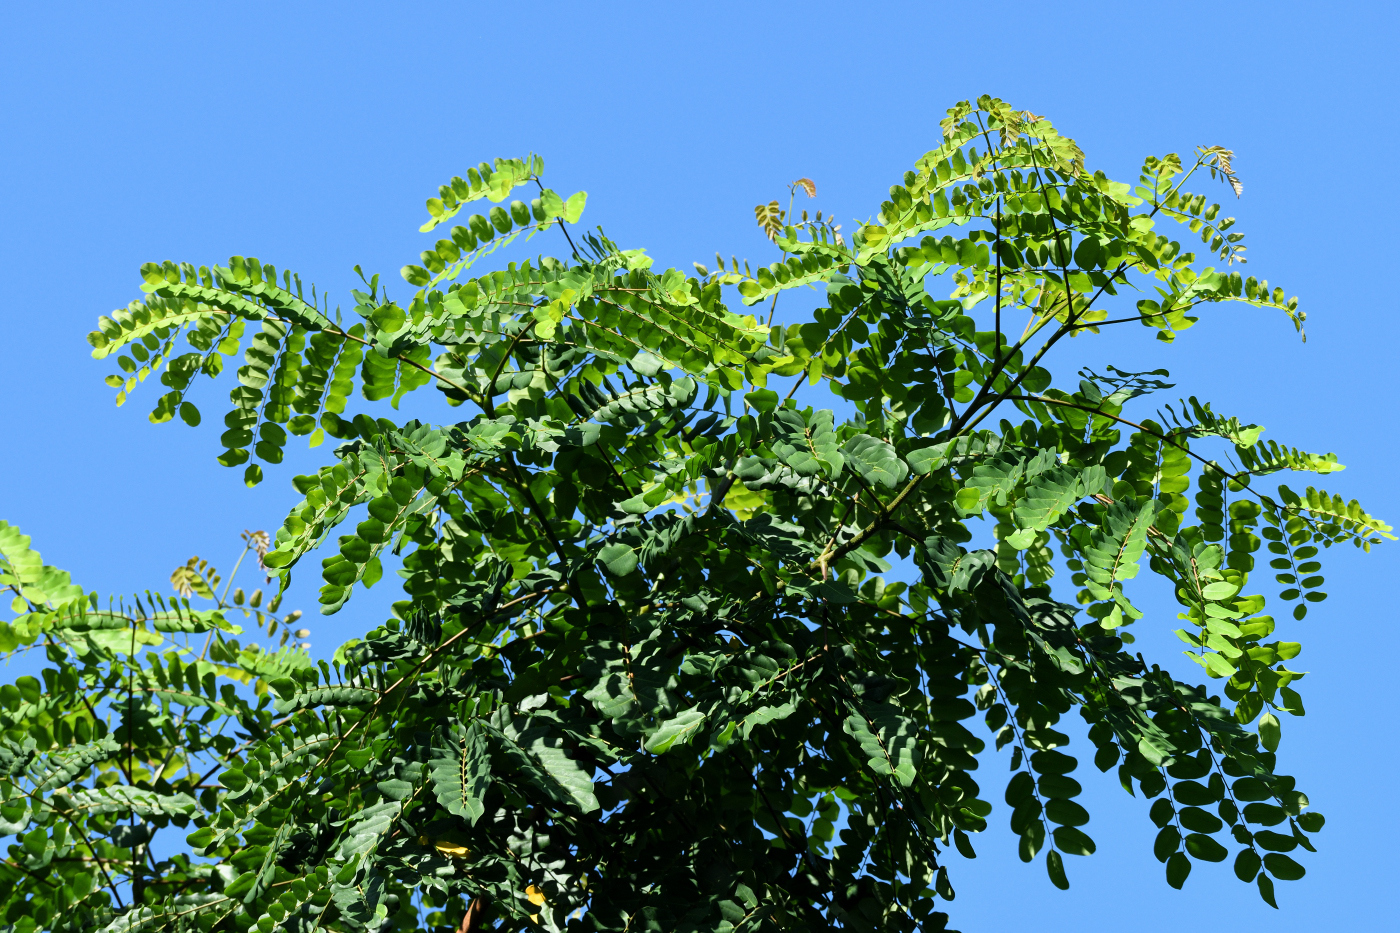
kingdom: Plantae
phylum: Tracheophyta
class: Magnoliopsida
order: Fabales
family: Fabaceae
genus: Cassia
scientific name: Cassia bakeriana
